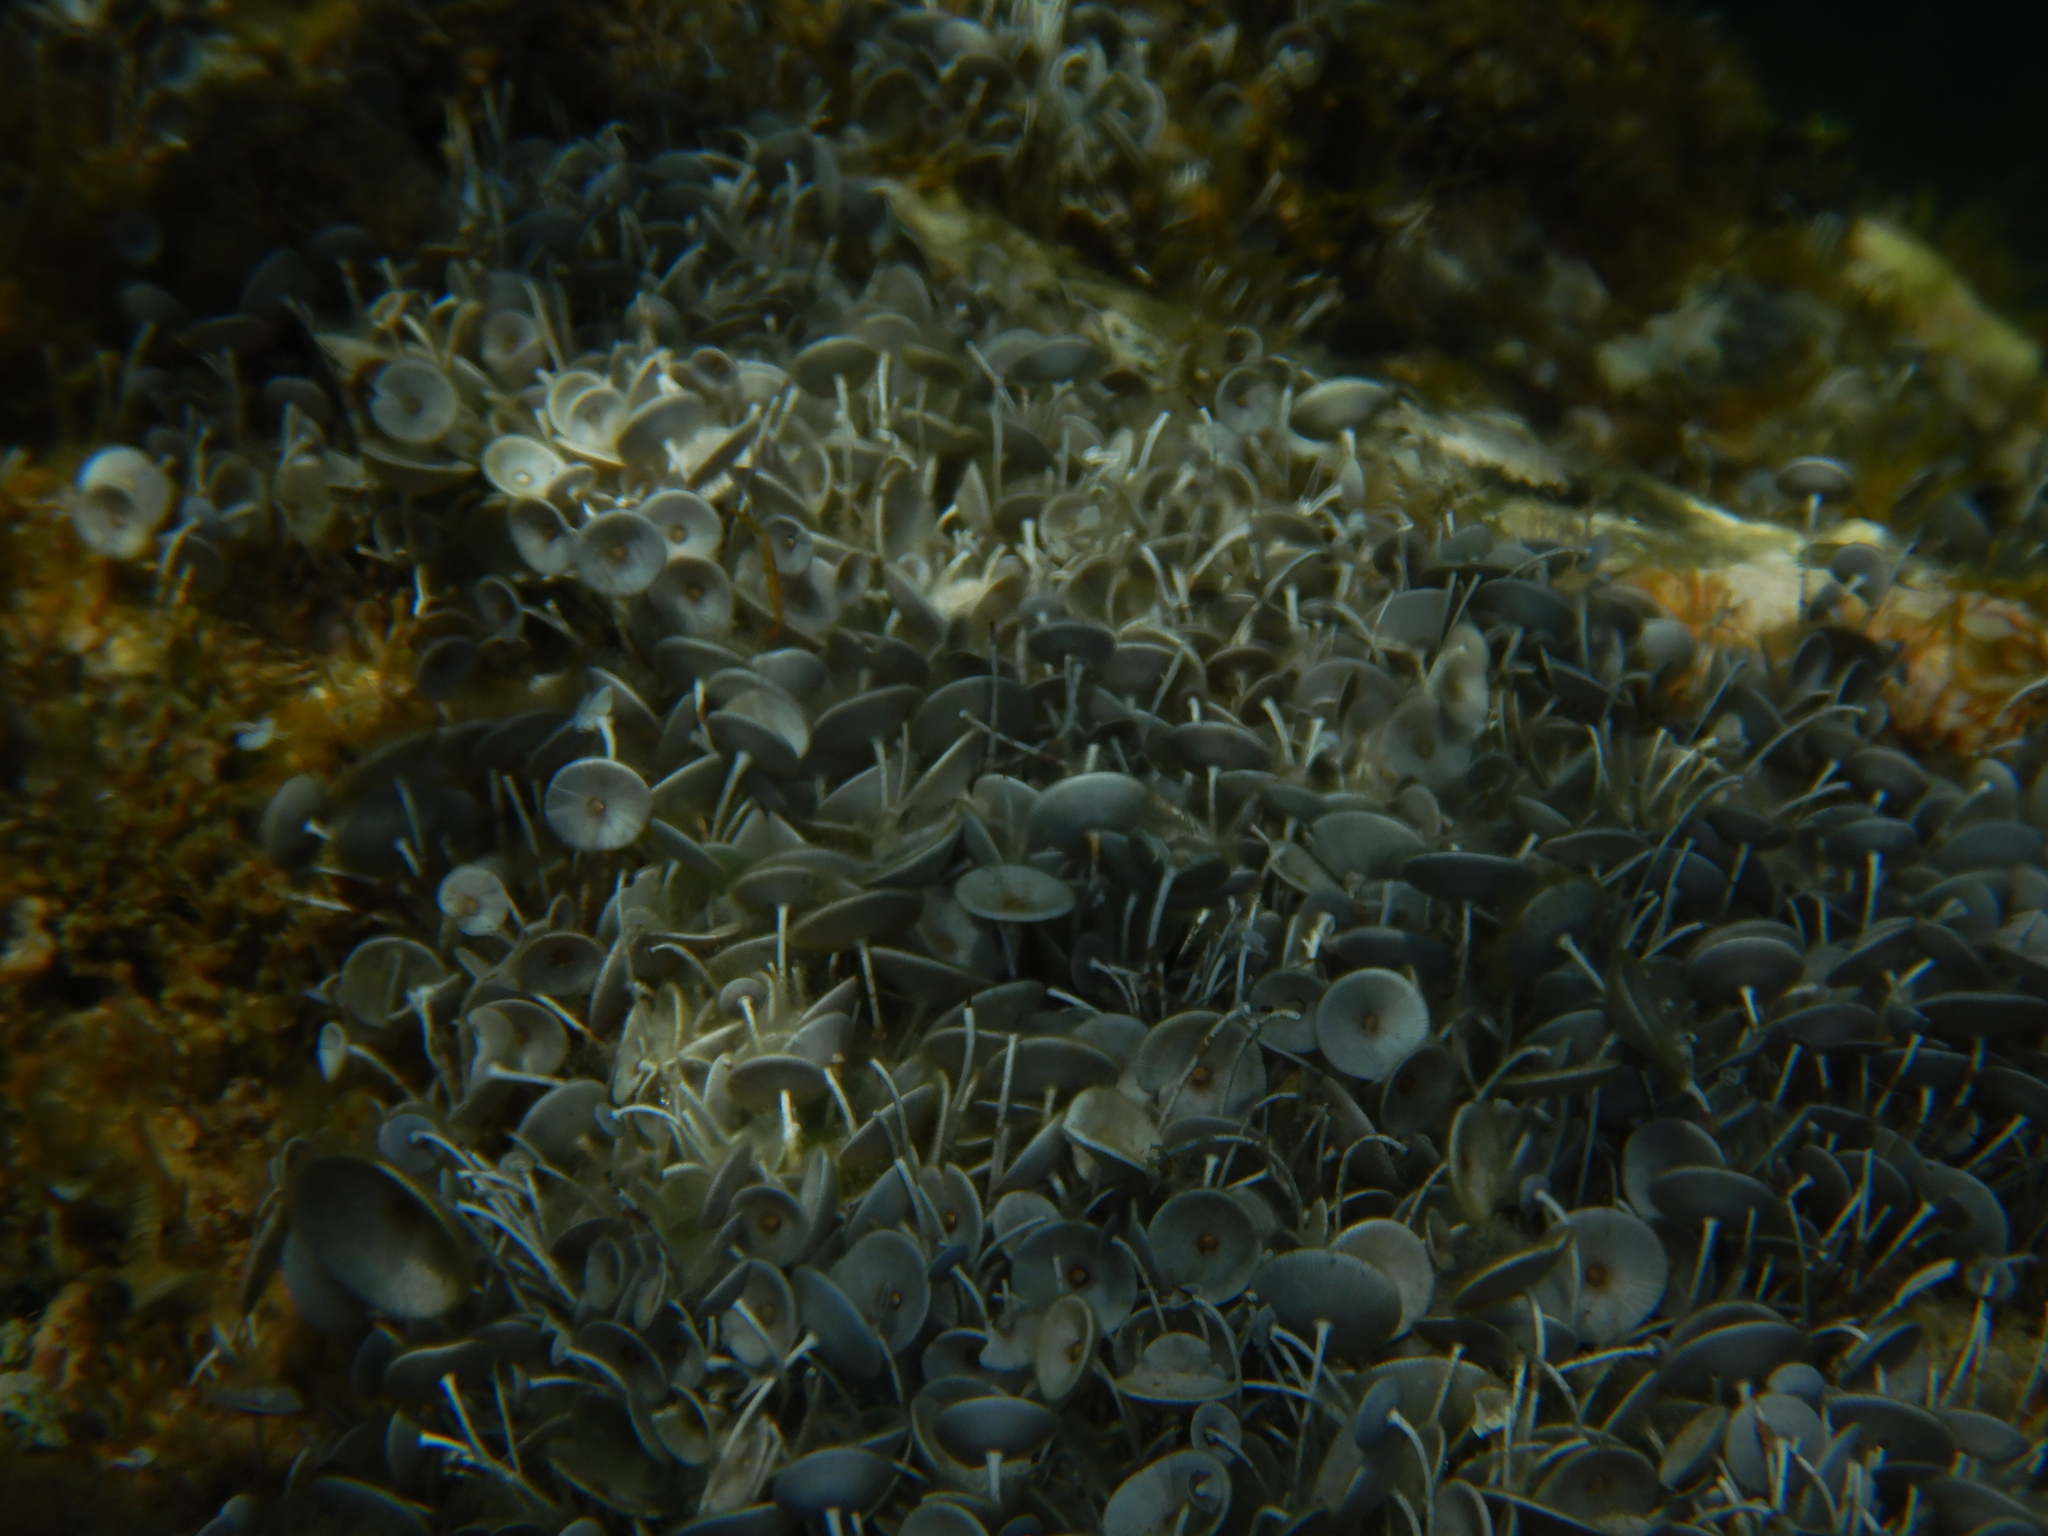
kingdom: Plantae
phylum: Chlorophyta
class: Ulvophyceae
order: Dasycladales
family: Polyphysaceae
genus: Acetabularia
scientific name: Acetabularia acetabulum
